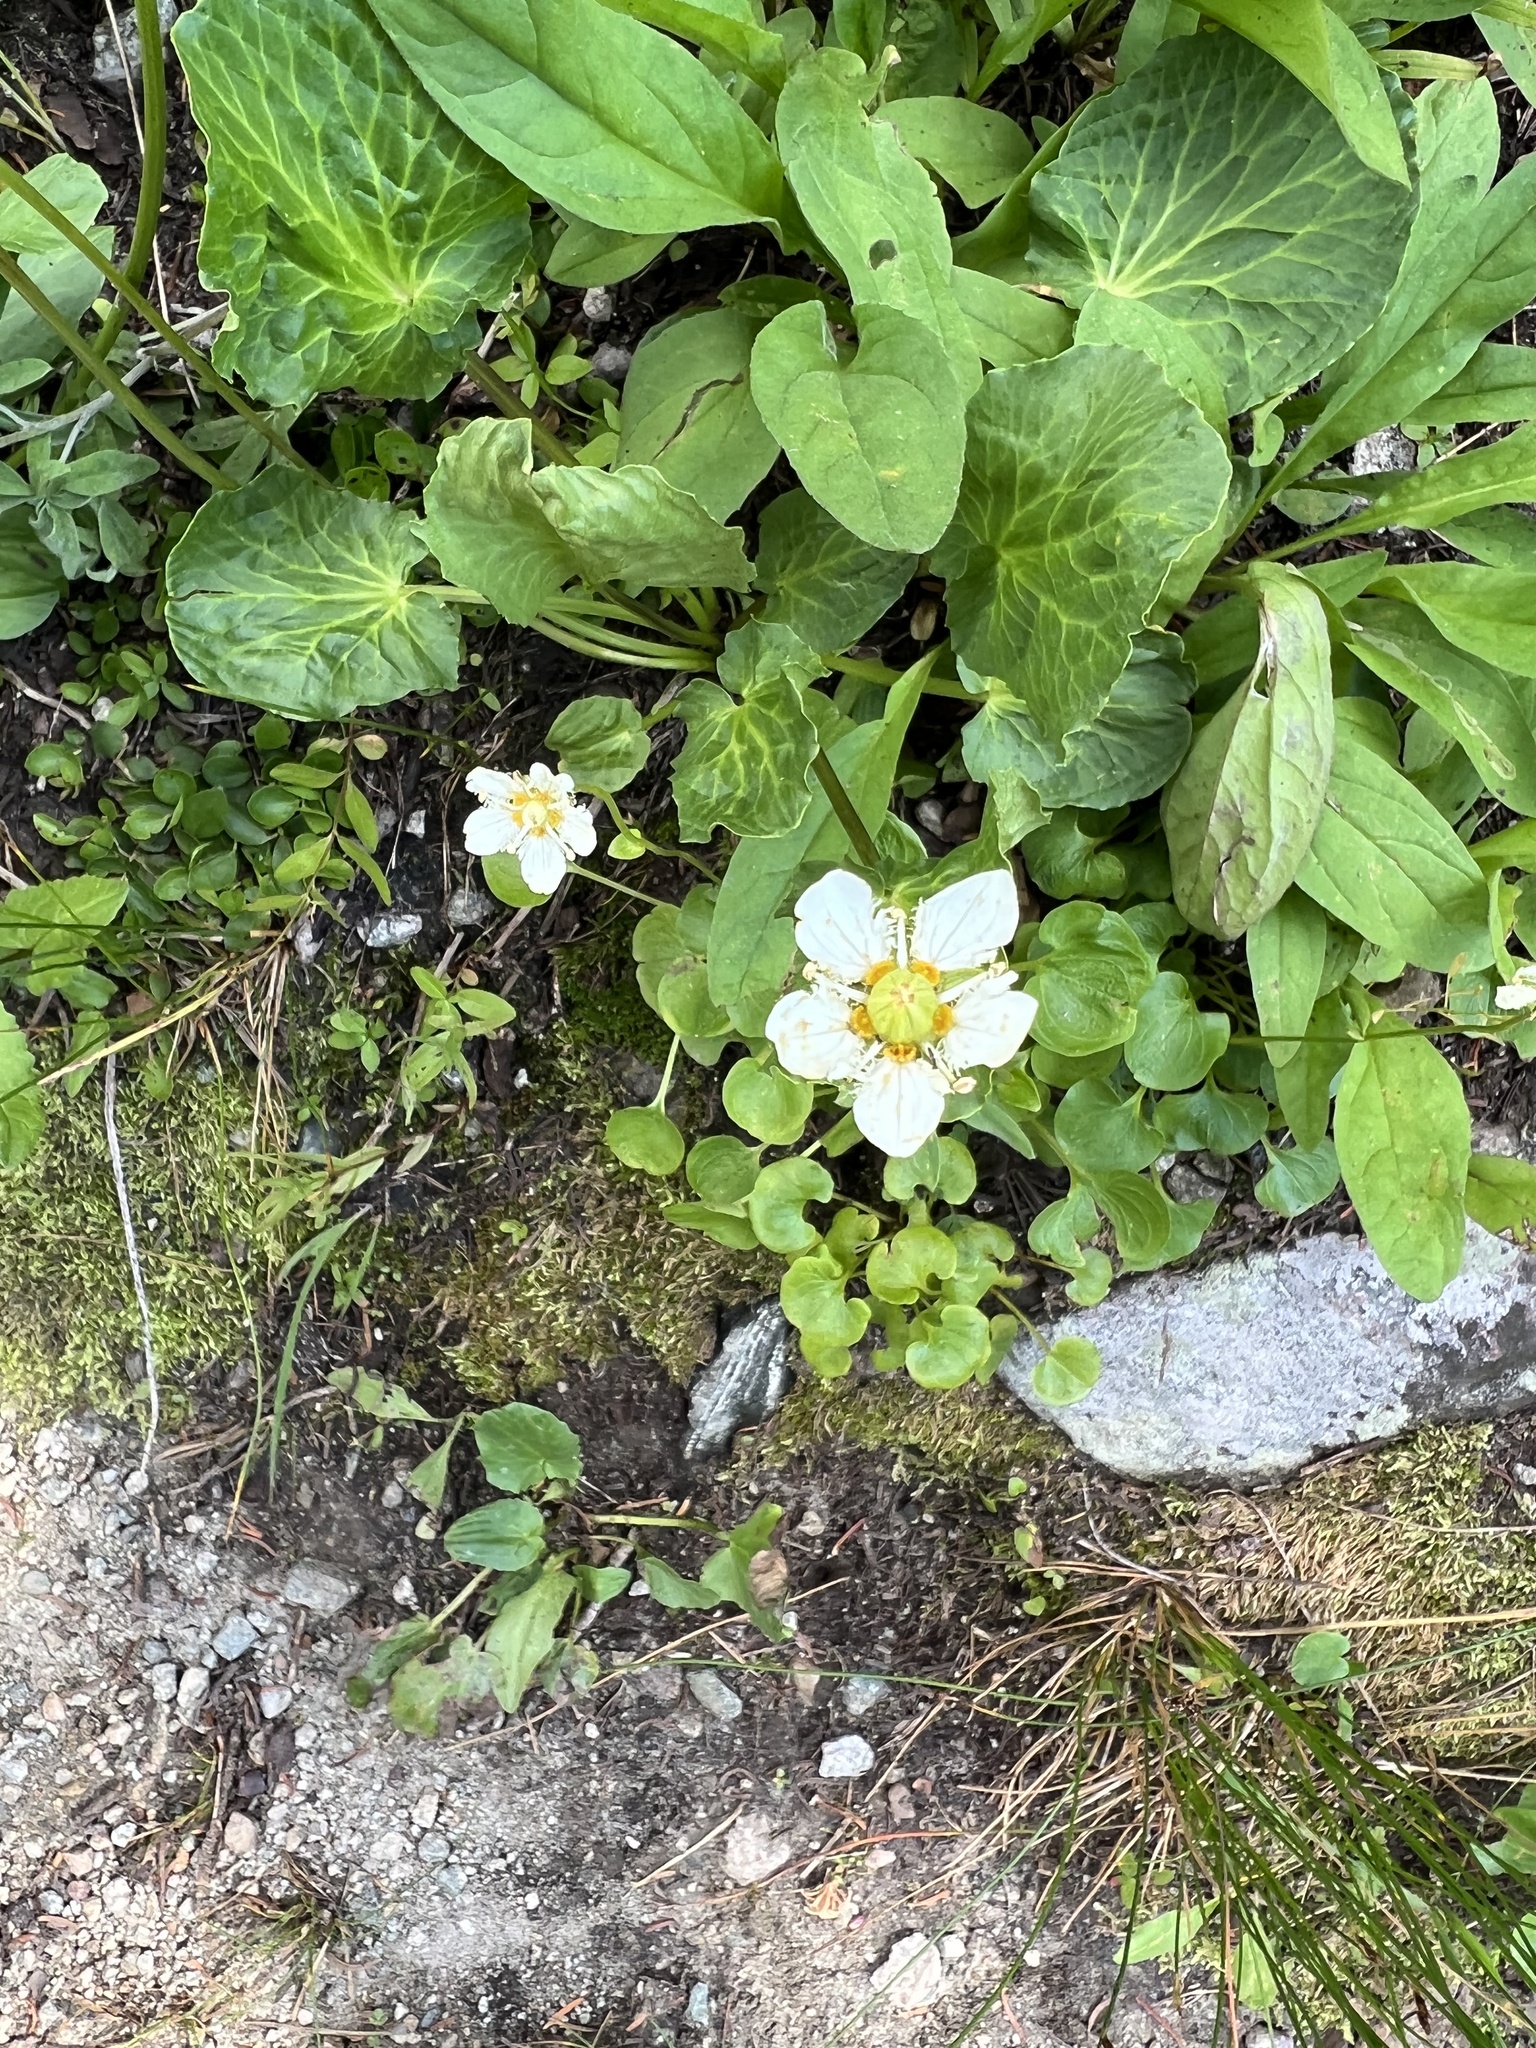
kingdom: Plantae
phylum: Tracheophyta
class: Magnoliopsida
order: Celastrales
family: Parnassiaceae
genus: Parnassia
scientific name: Parnassia fimbriata
